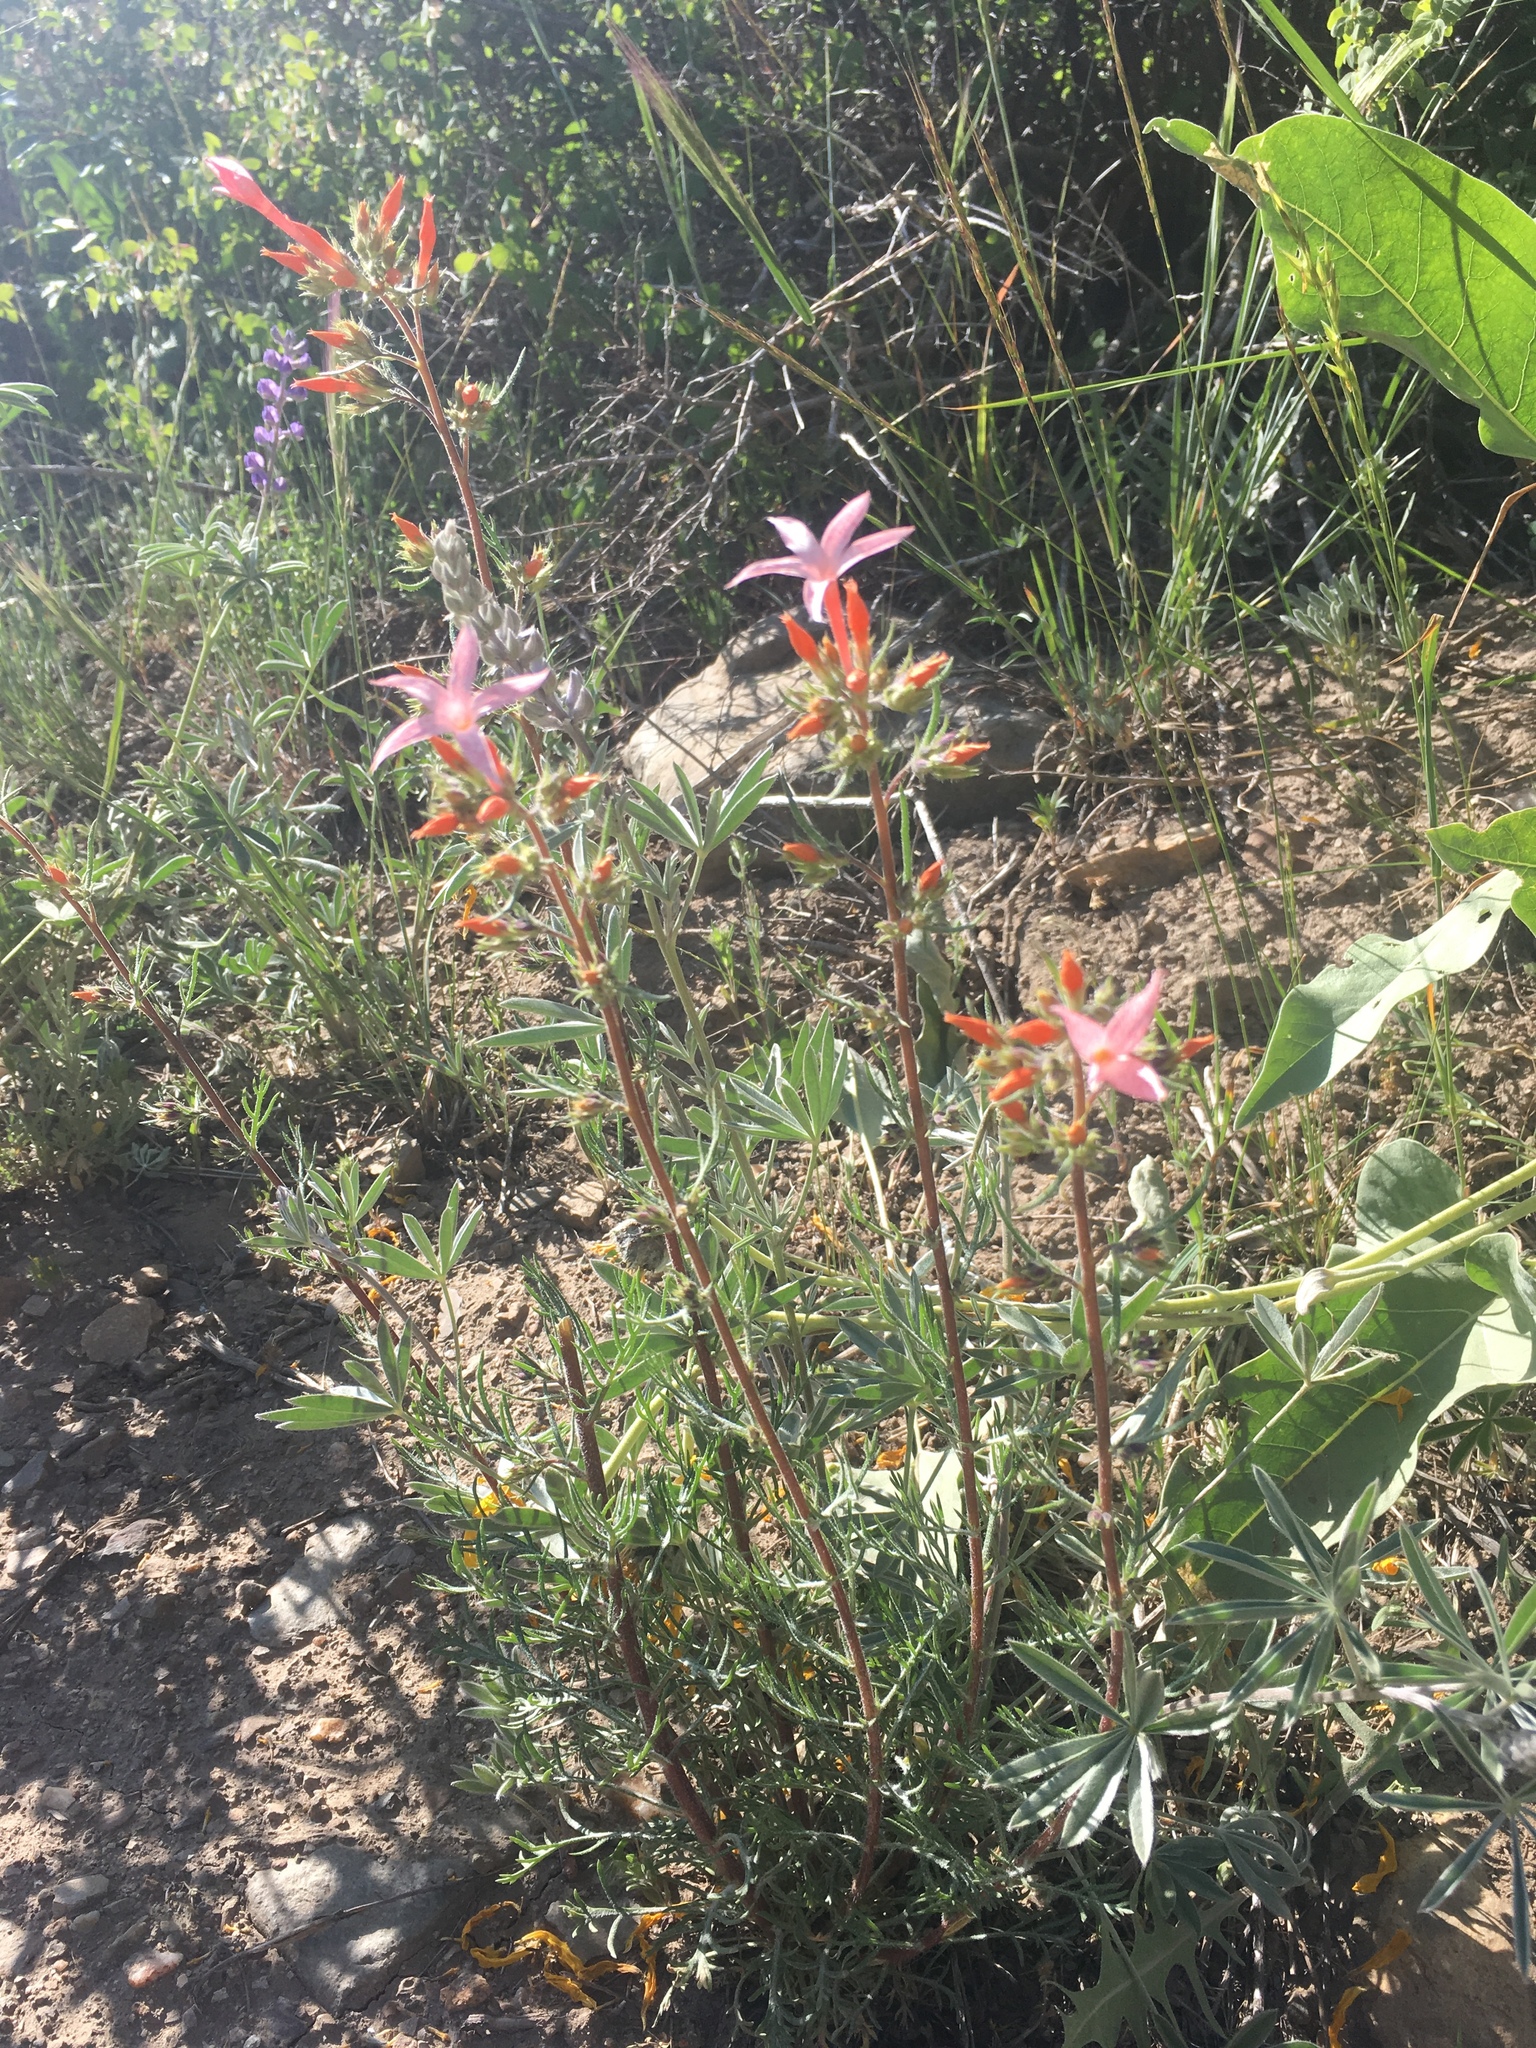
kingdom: Plantae
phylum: Tracheophyta
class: Magnoliopsida
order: Ericales
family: Polemoniaceae
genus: Ipomopsis
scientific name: Ipomopsis tenuituba
